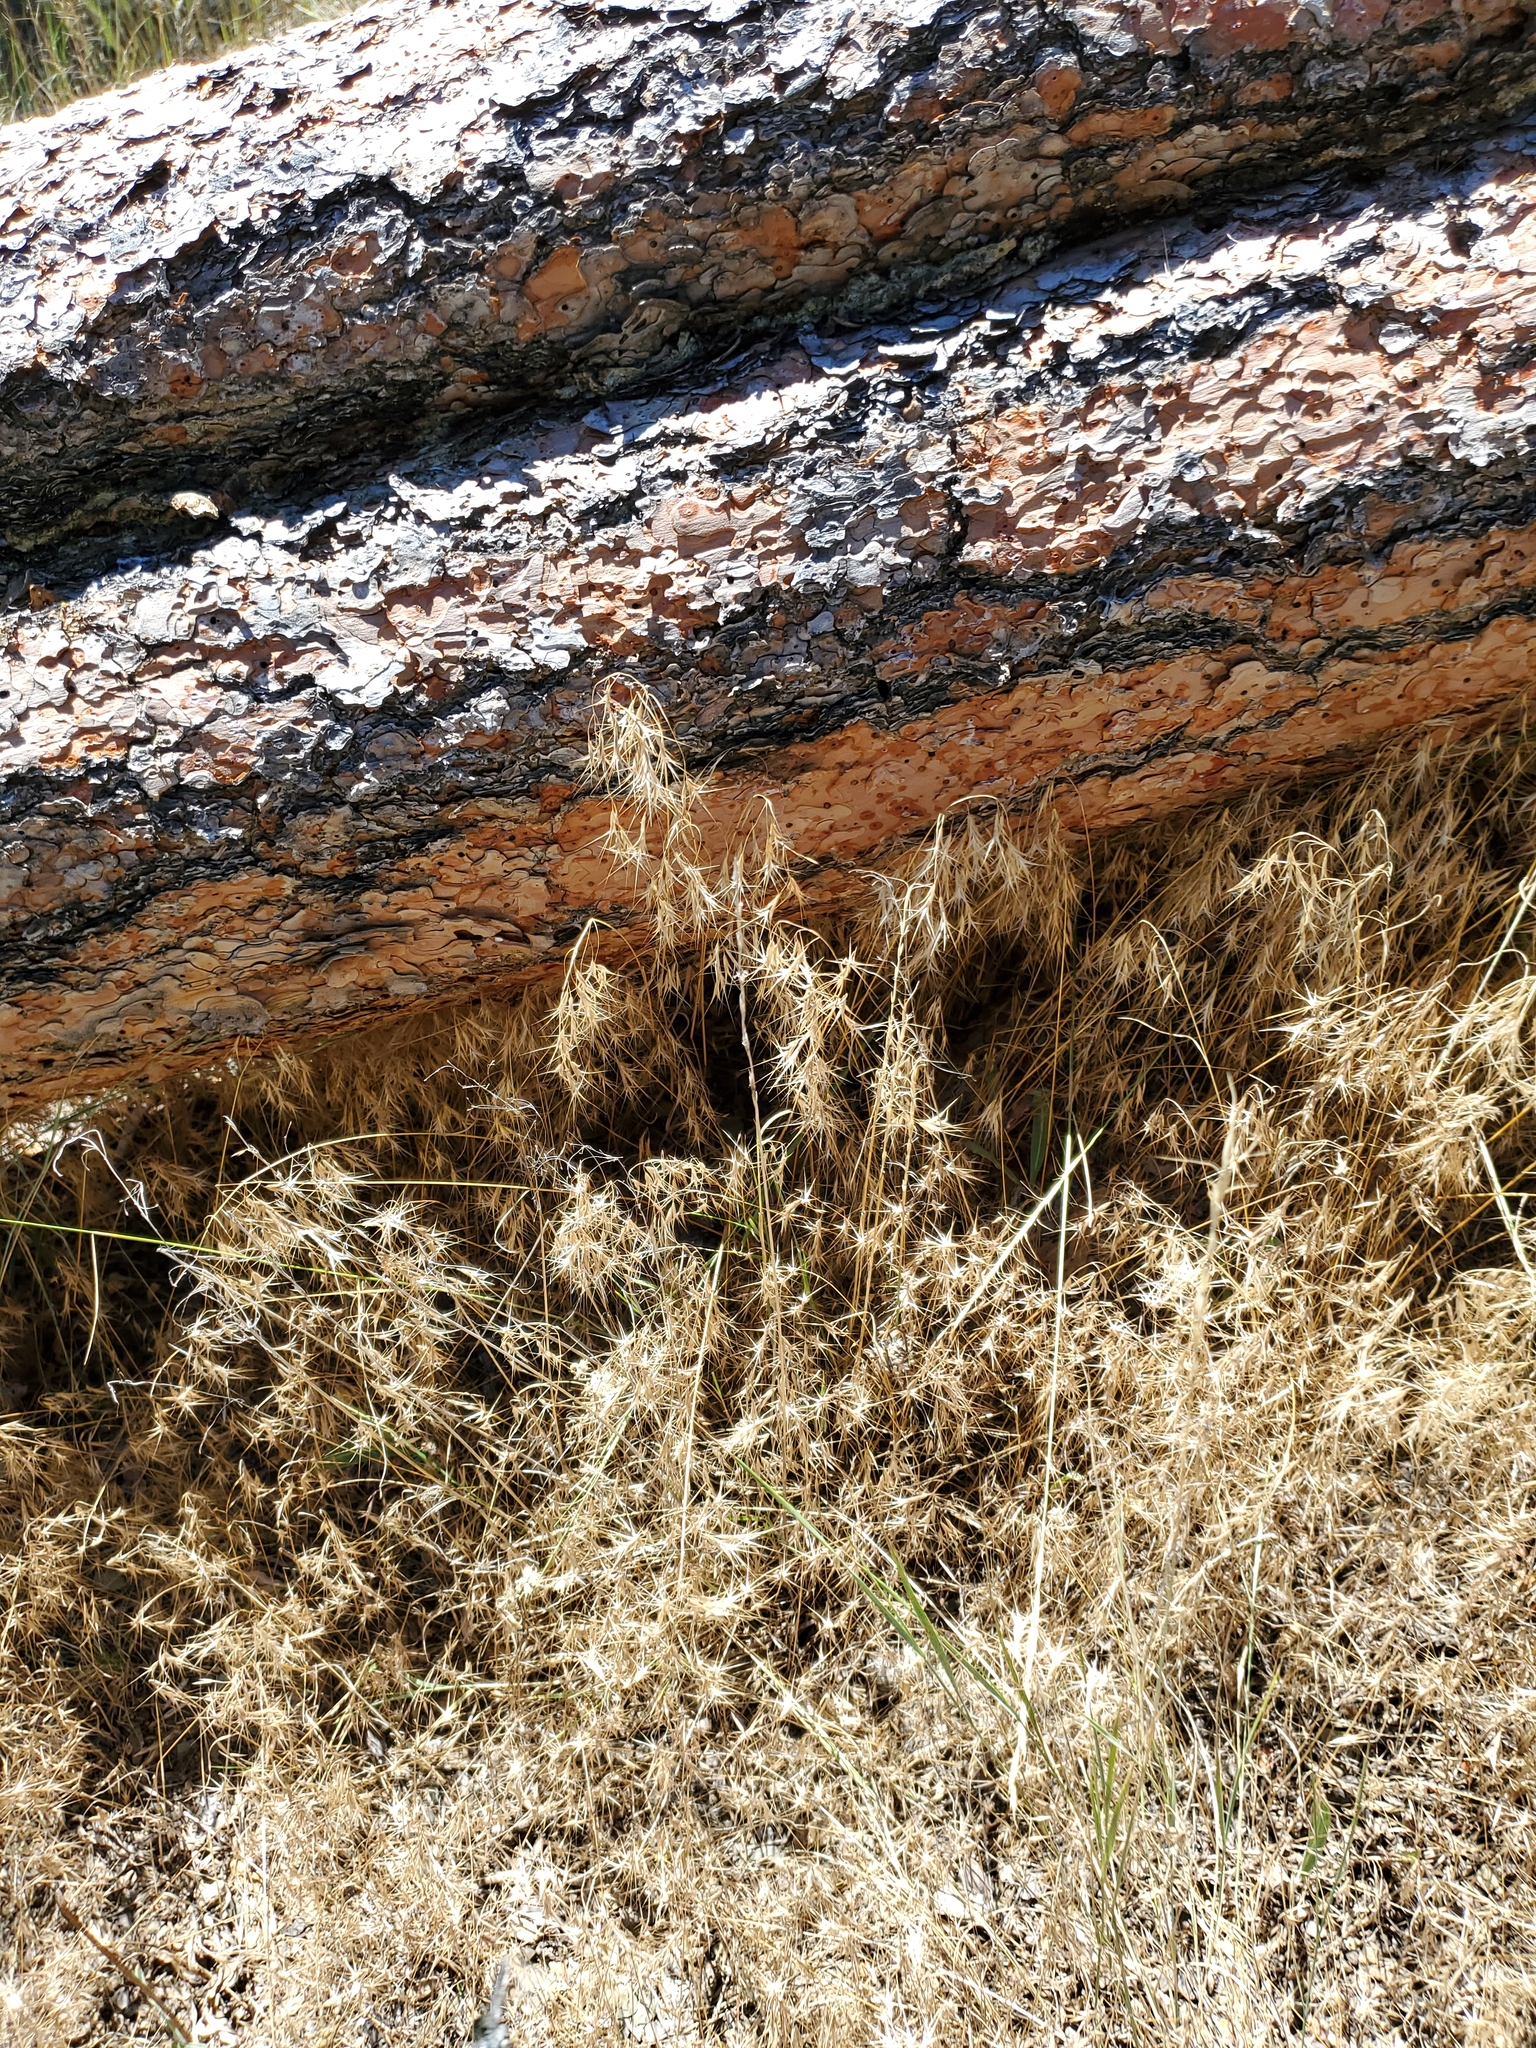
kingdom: Plantae
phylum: Tracheophyta
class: Liliopsida
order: Poales
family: Poaceae
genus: Bromus
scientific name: Bromus tectorum
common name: Cheatgrass
